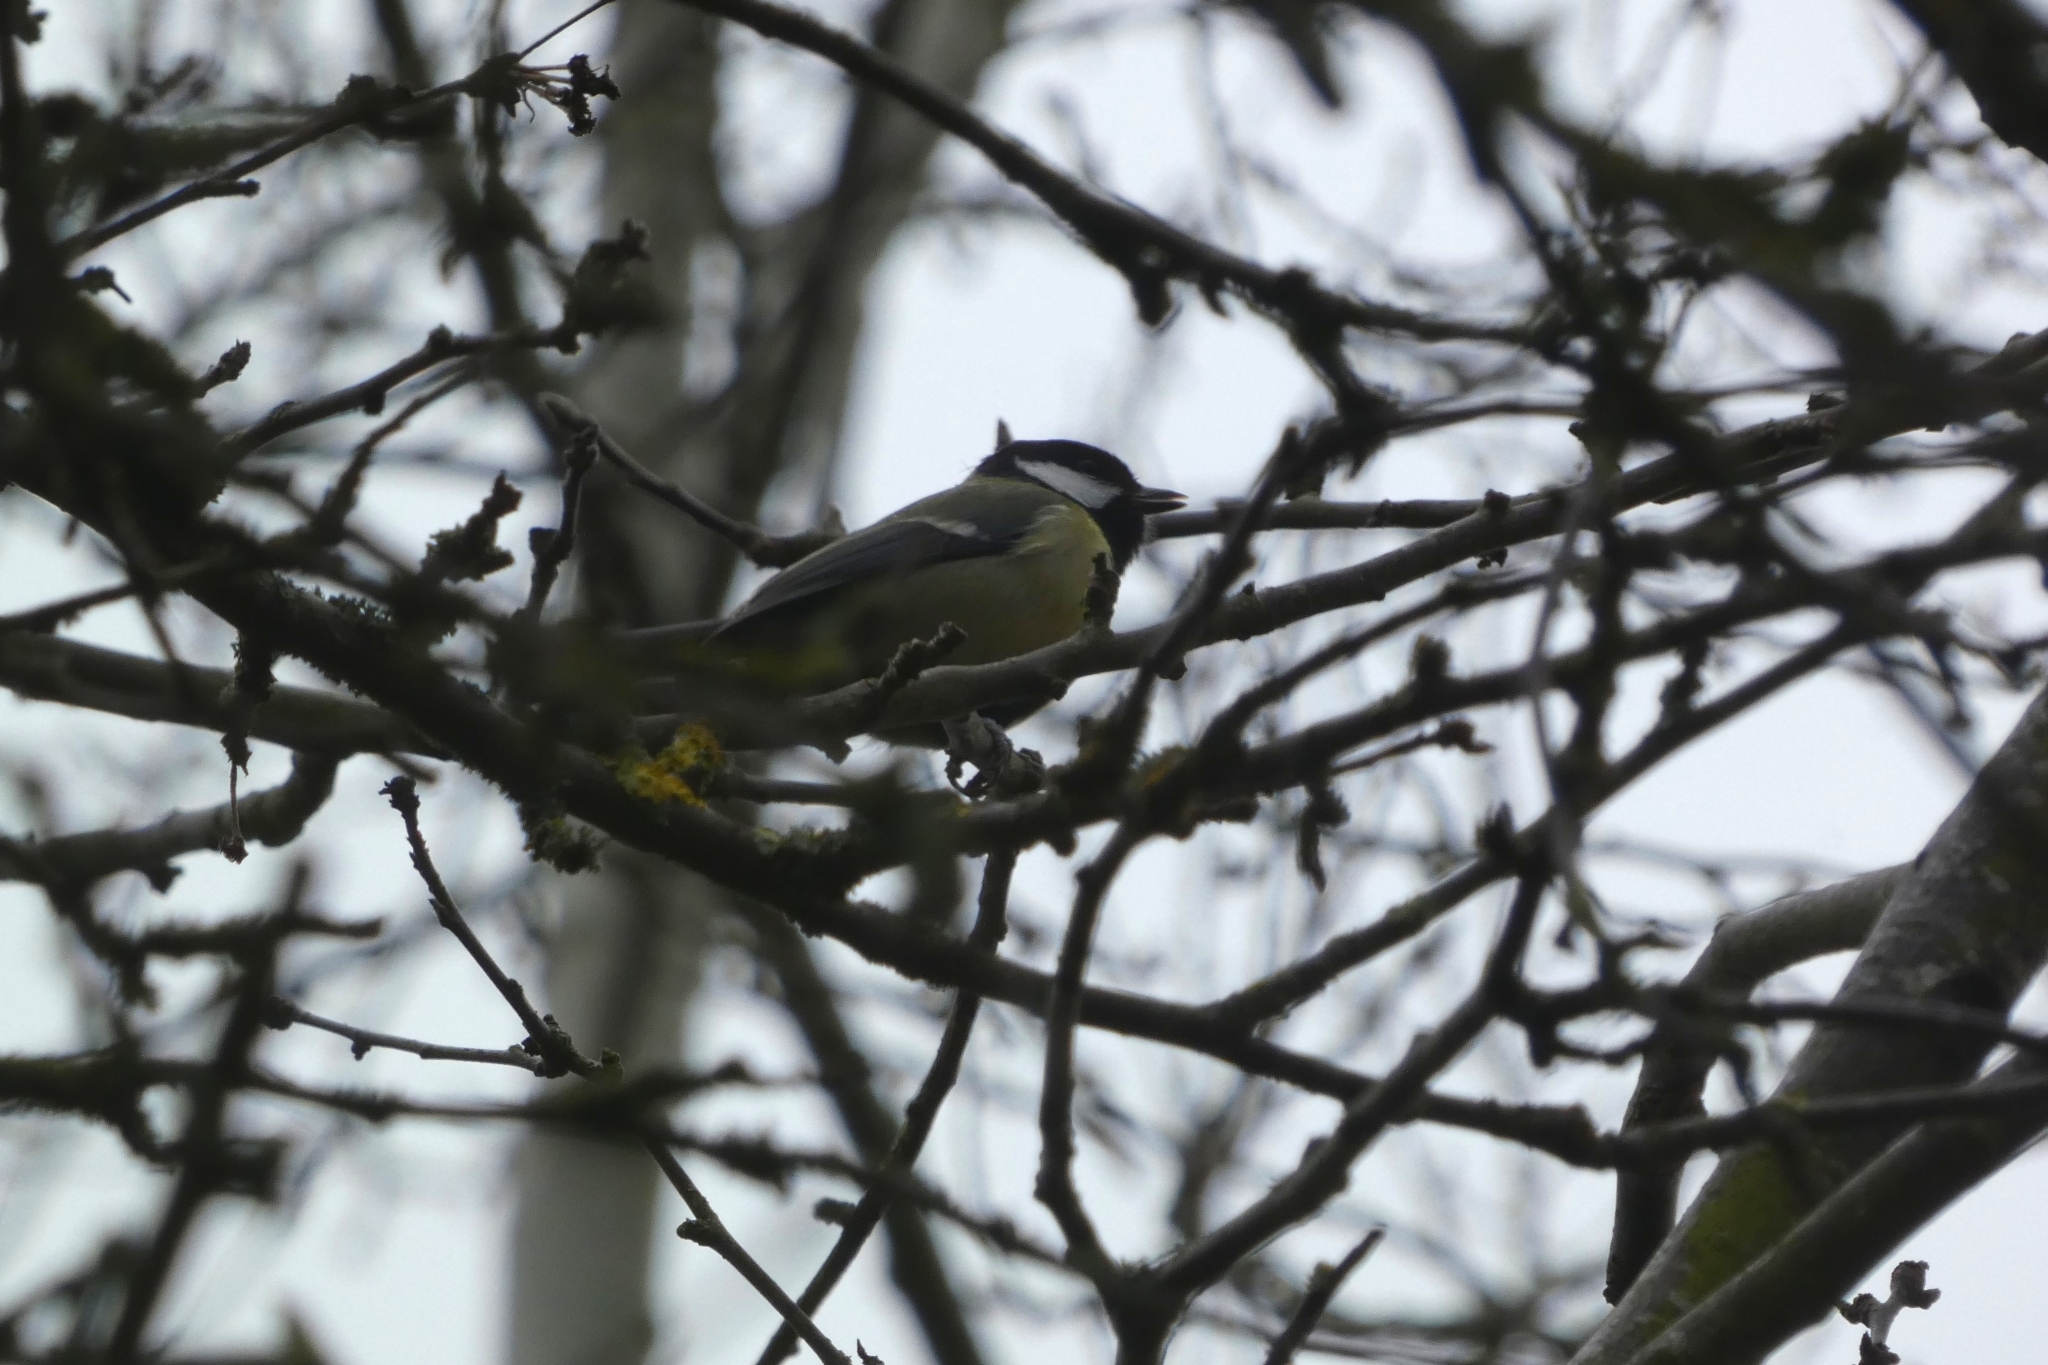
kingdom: Animalia
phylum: Chordata
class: Aves
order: Passeriformes
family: Paridae
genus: Parus
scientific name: Parus major
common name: Great tit
